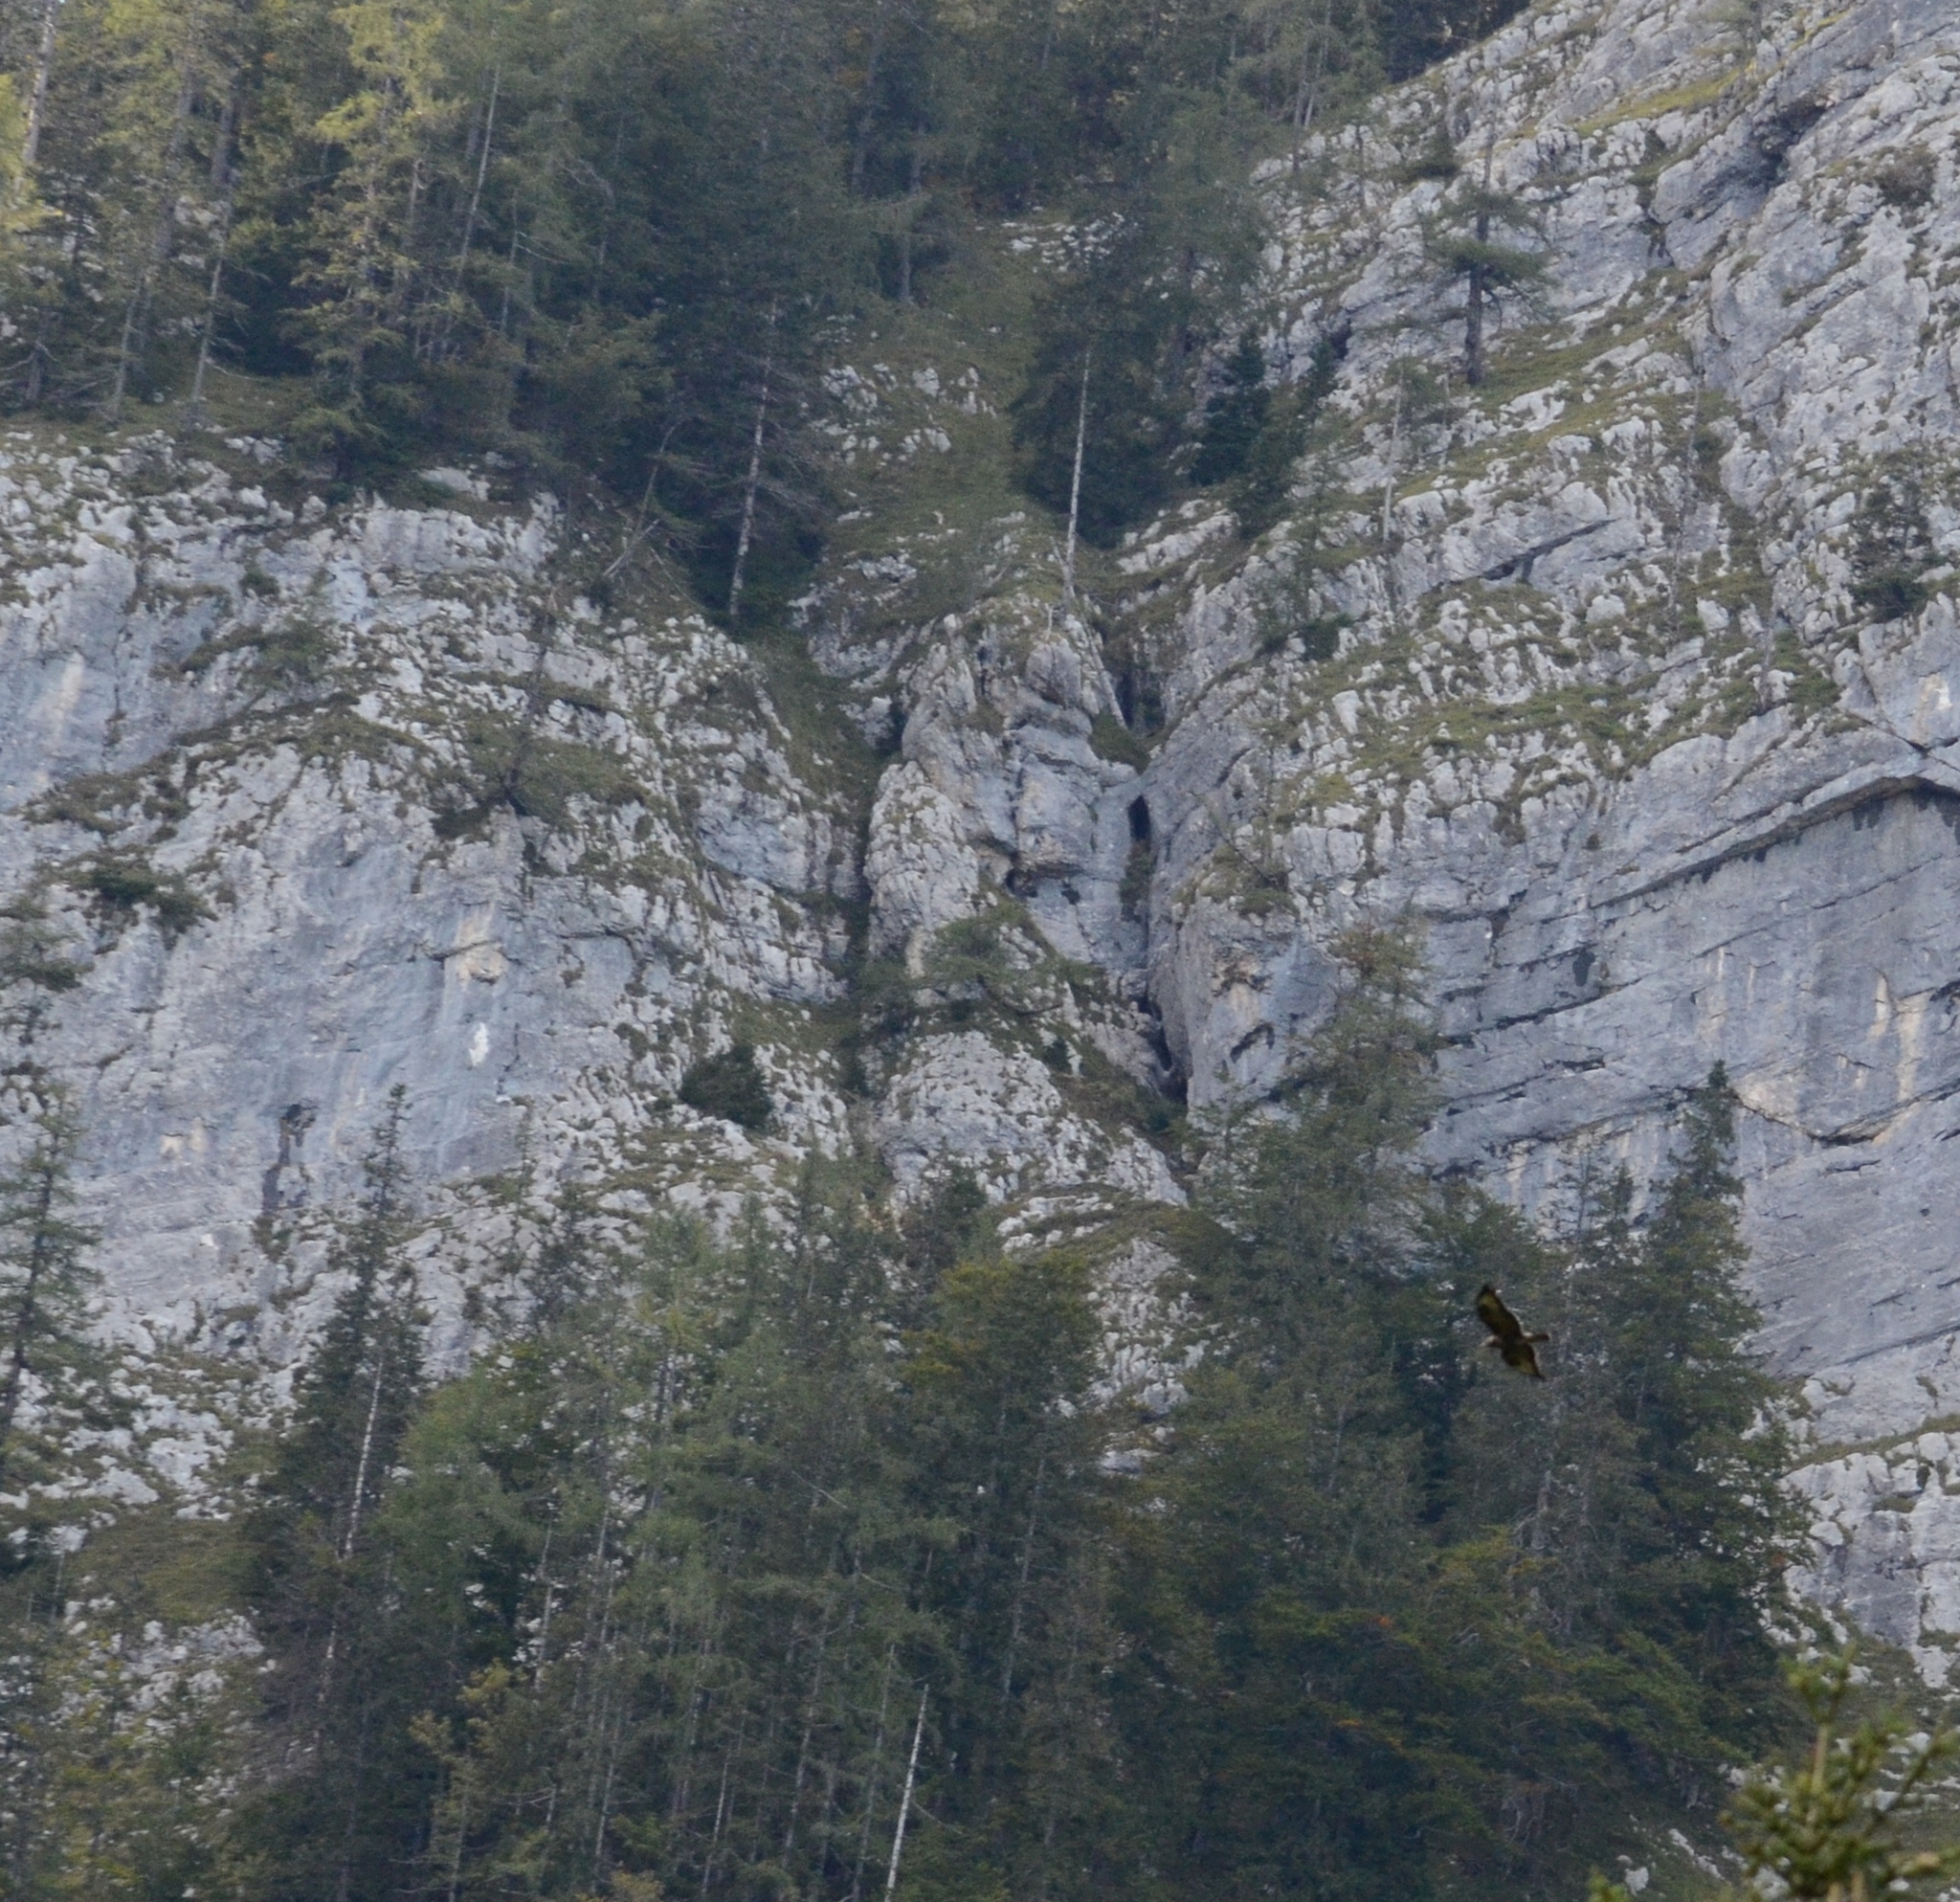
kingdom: Animalia
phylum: Chordata
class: Aves
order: Accipitriformes
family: Accipitridae
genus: Buteo
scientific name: Buteo buteo
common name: Common buzzard
